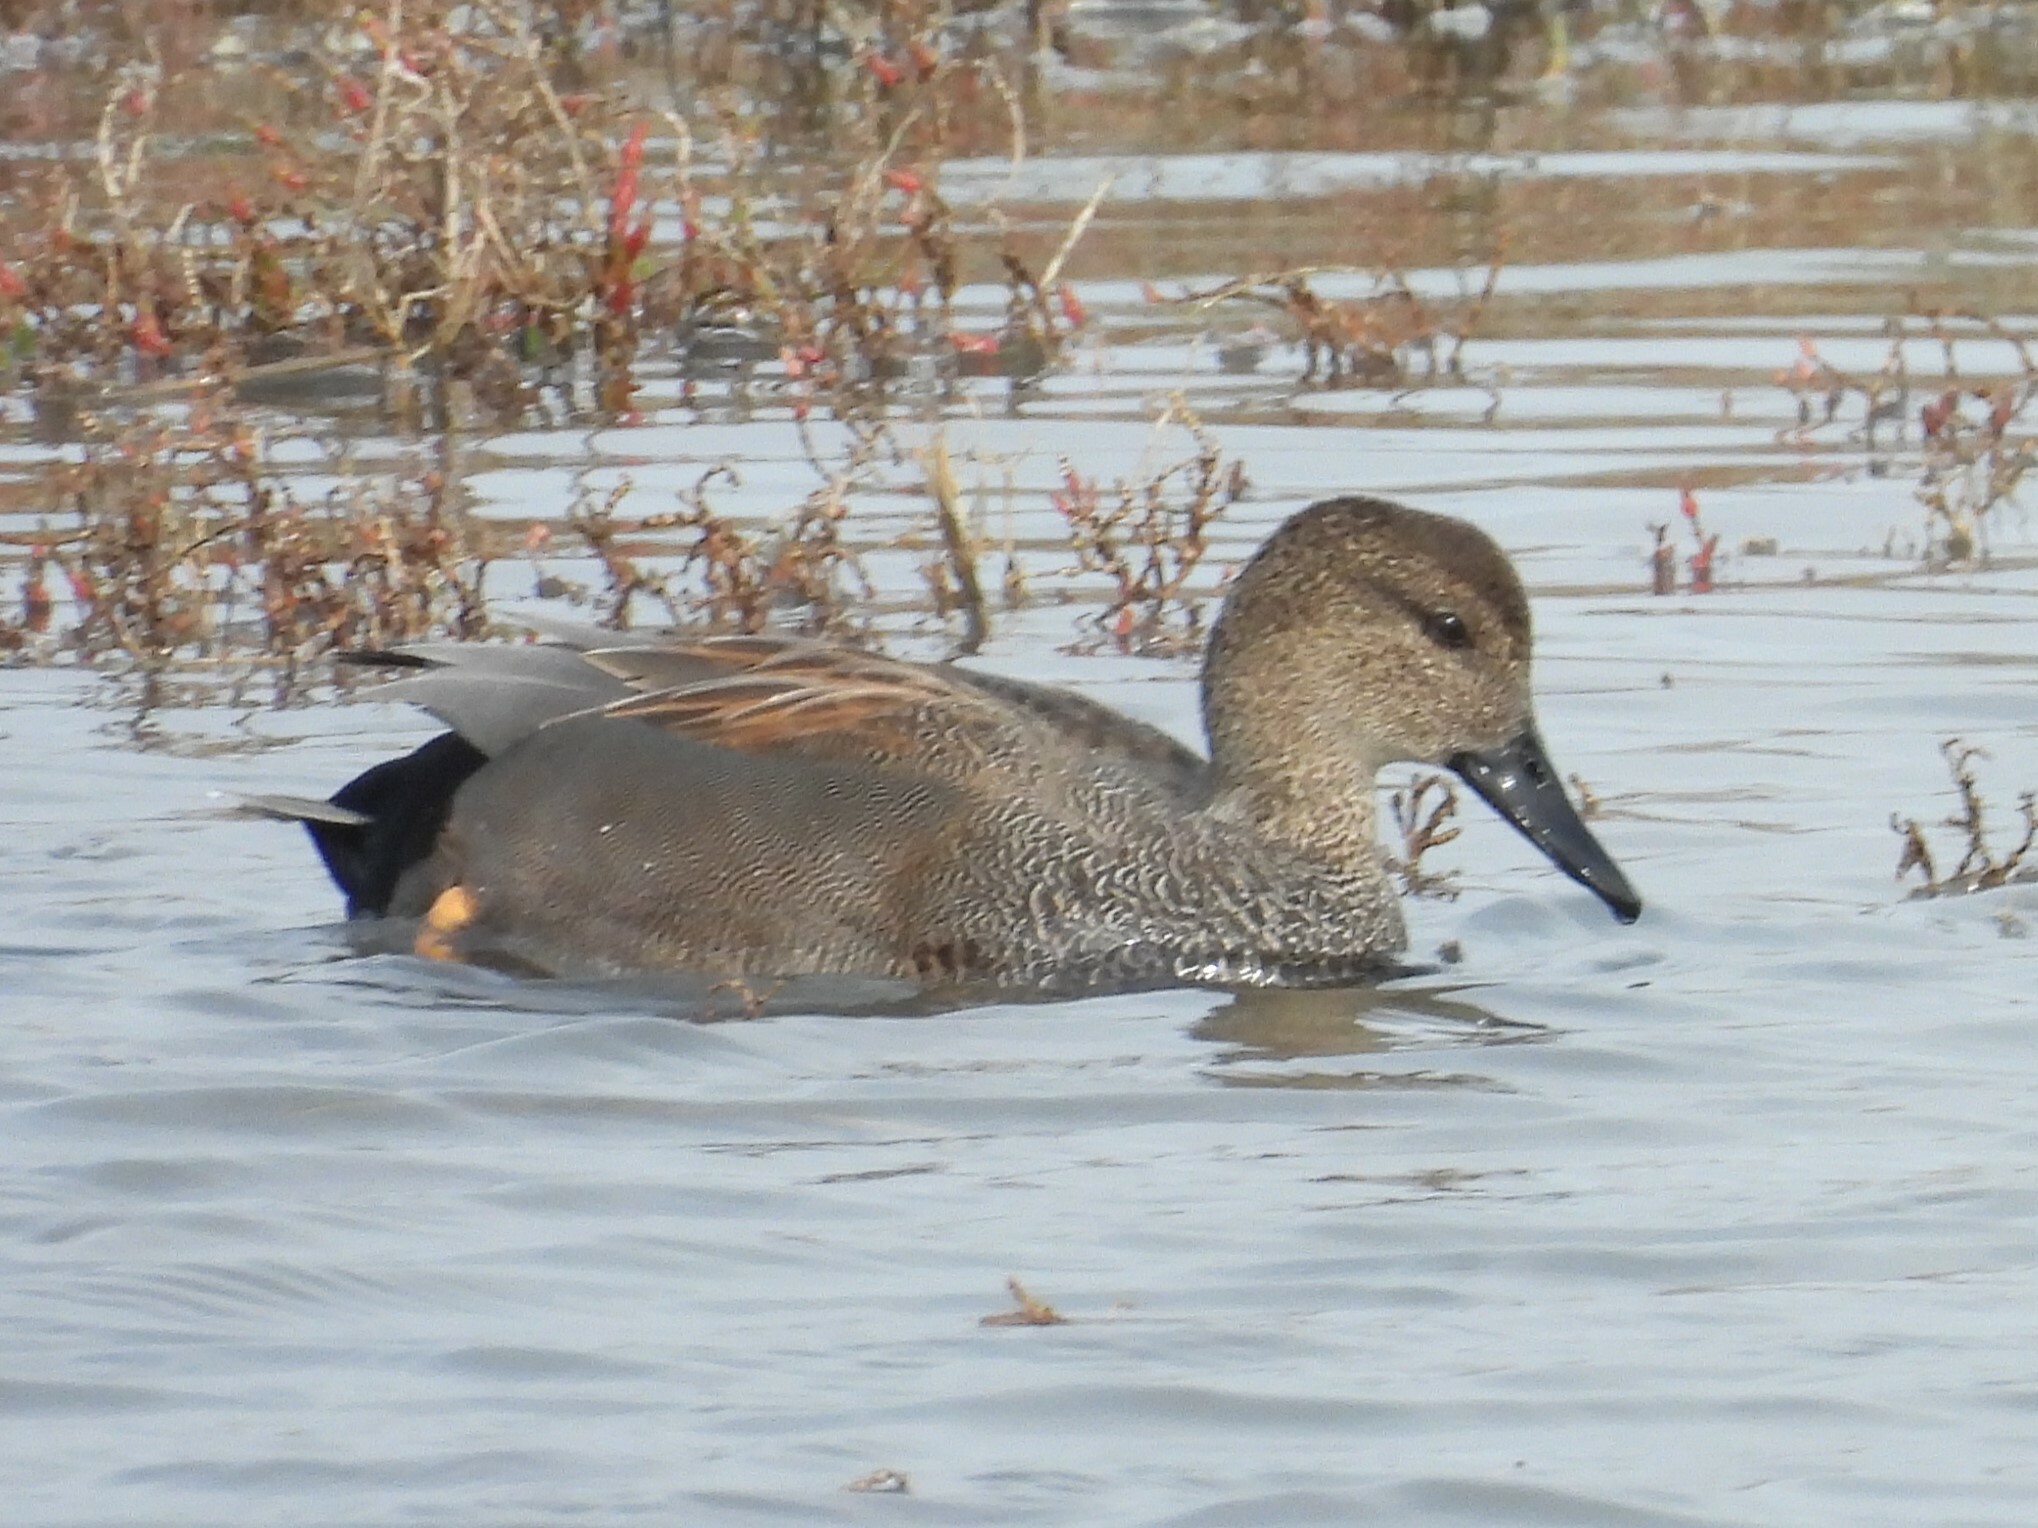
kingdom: Animalia
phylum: Chordata
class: Aves
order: Anseriformes
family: Anatidae
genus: Mareca
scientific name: Mareca strepera
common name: Gadwall
